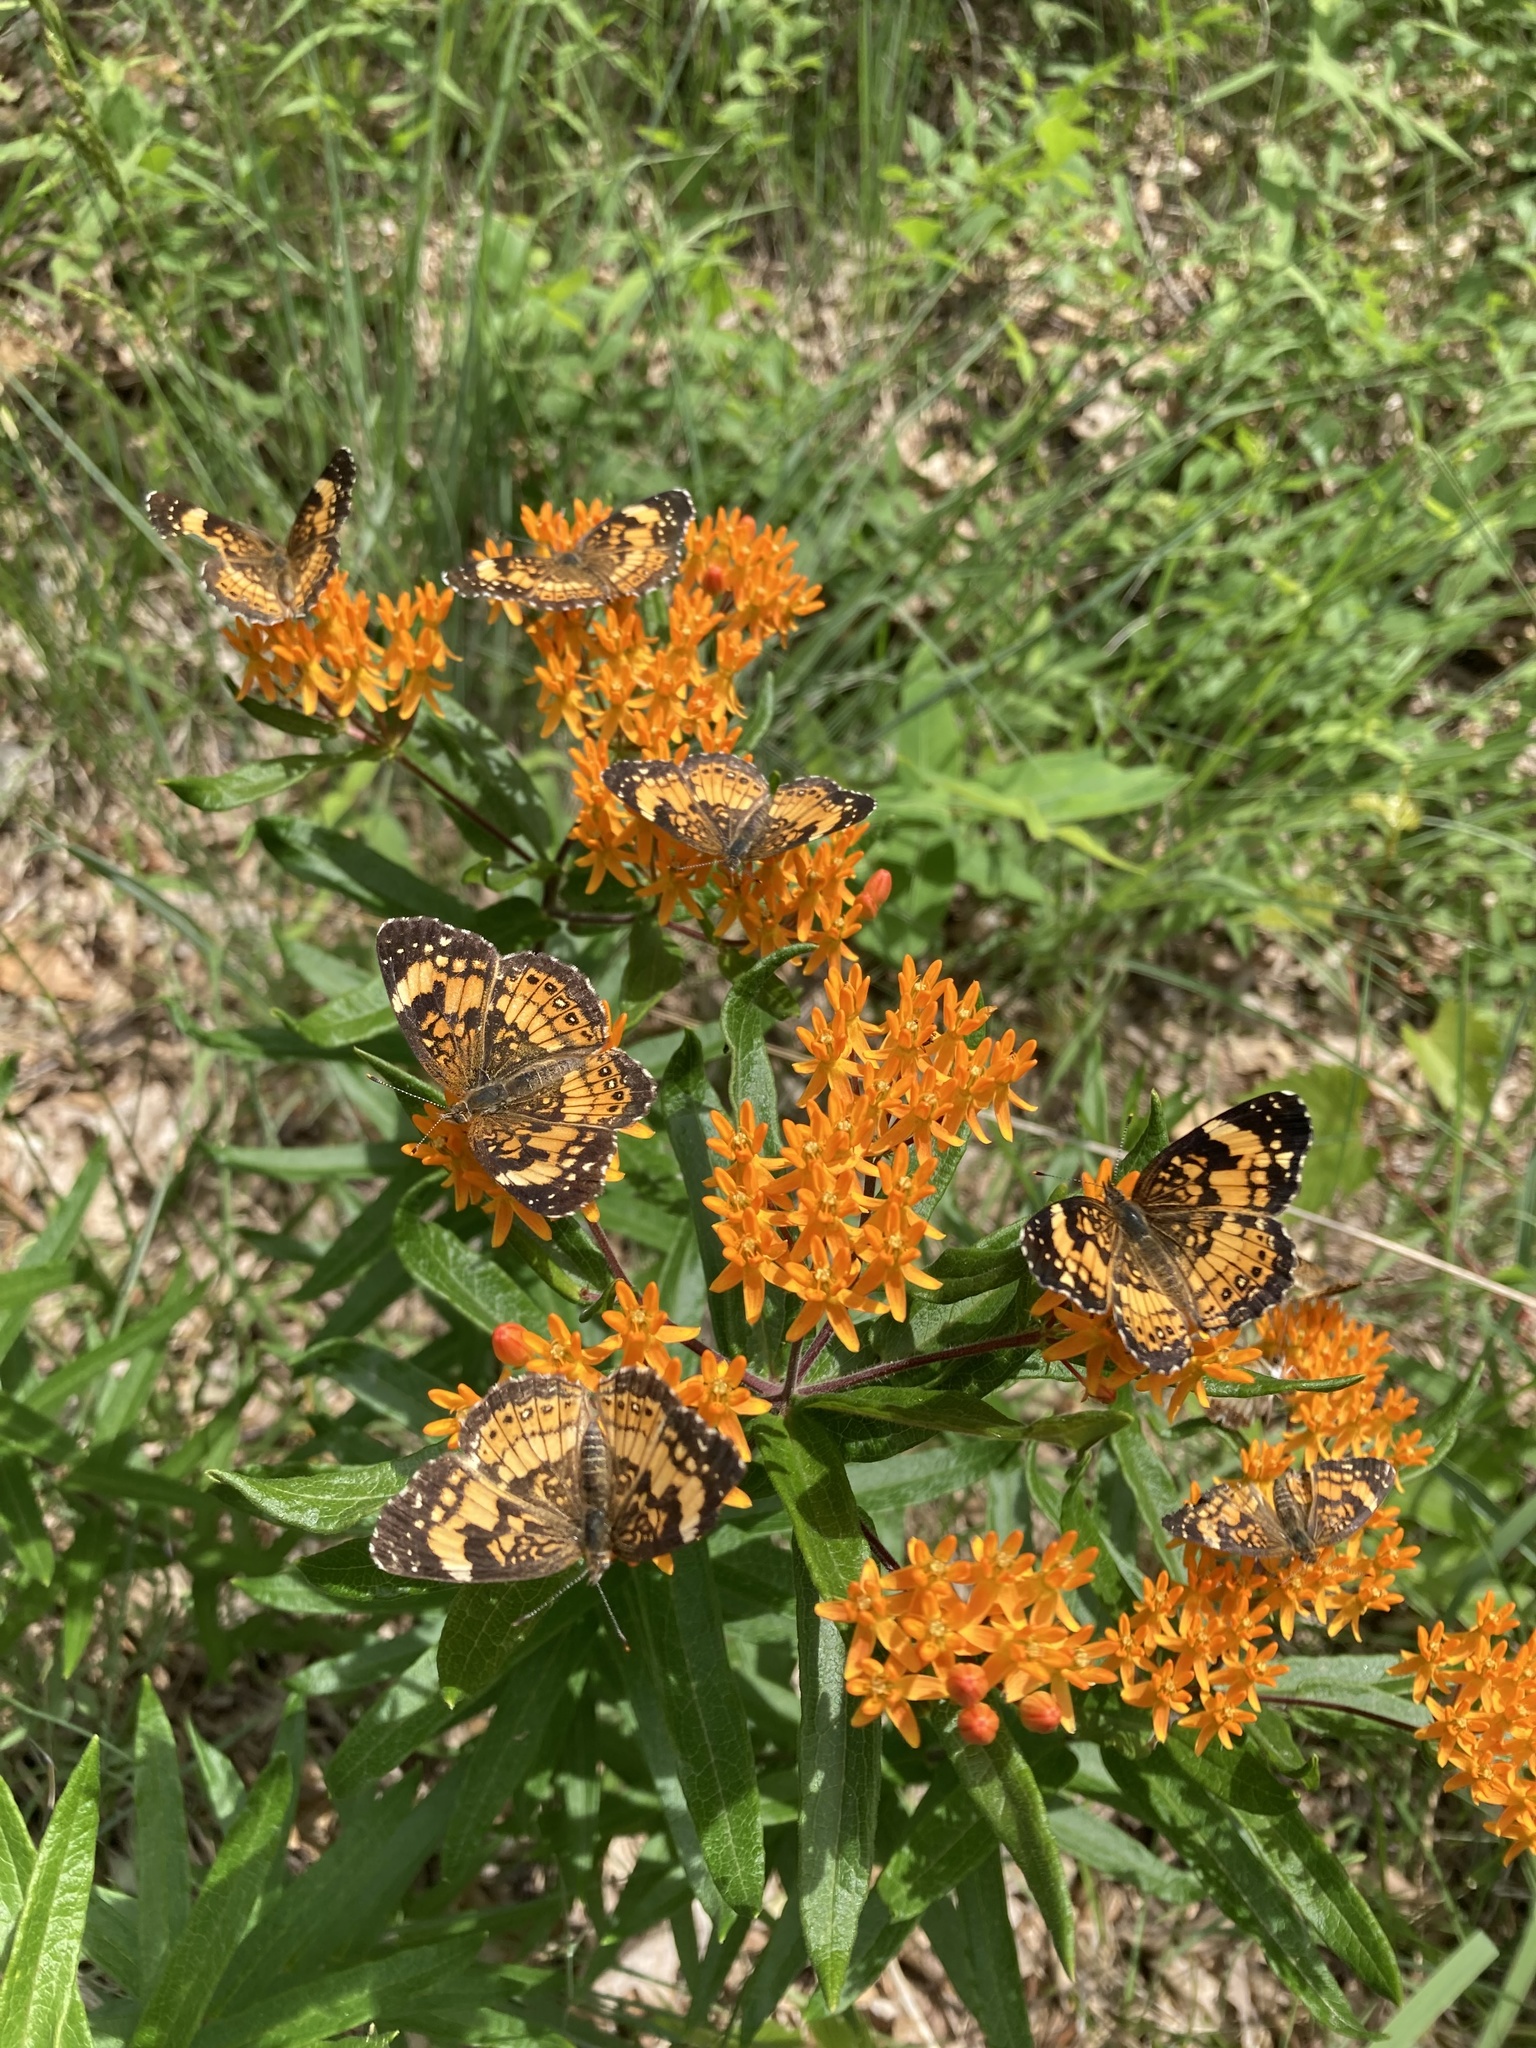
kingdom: Plantae
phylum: Tracheophyta
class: Magnoliopsida
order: Gentianales
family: Apocynaceae
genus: Asclepias
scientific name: Asclepias tuberosa
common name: Butterfly milkweed
